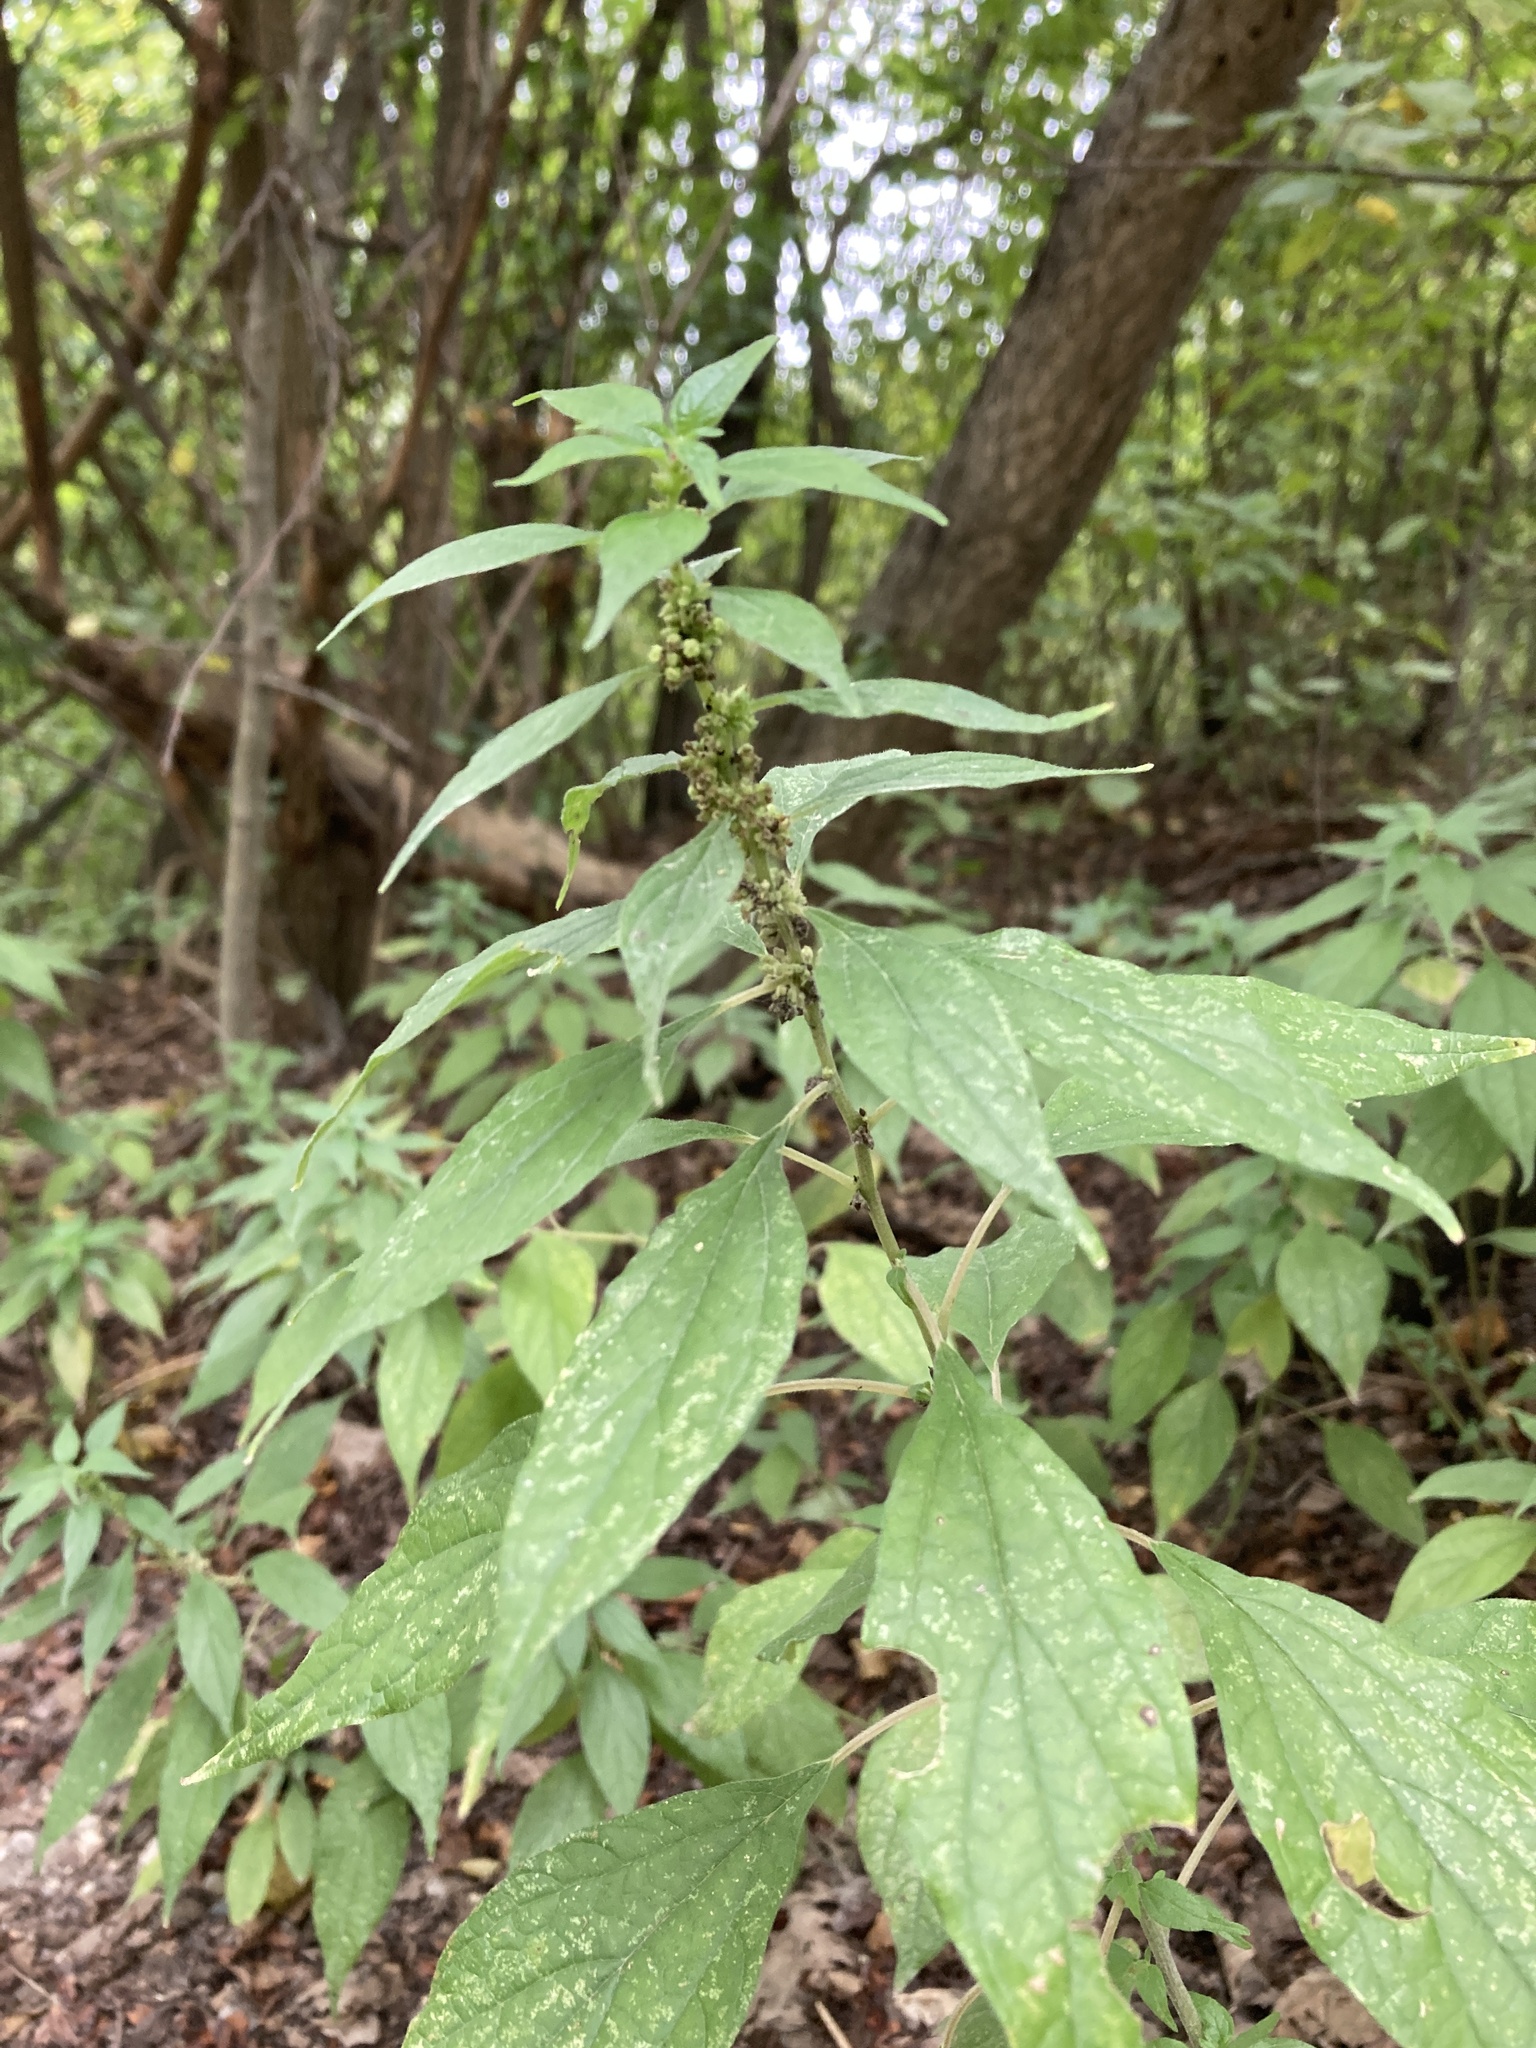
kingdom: Plantae
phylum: Tracheophyta
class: Magnoliopsida
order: Rosales
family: Urticaceae
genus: Parietaria
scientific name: Parietaria officinalis
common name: Eastern pellitory-of-the-wall
